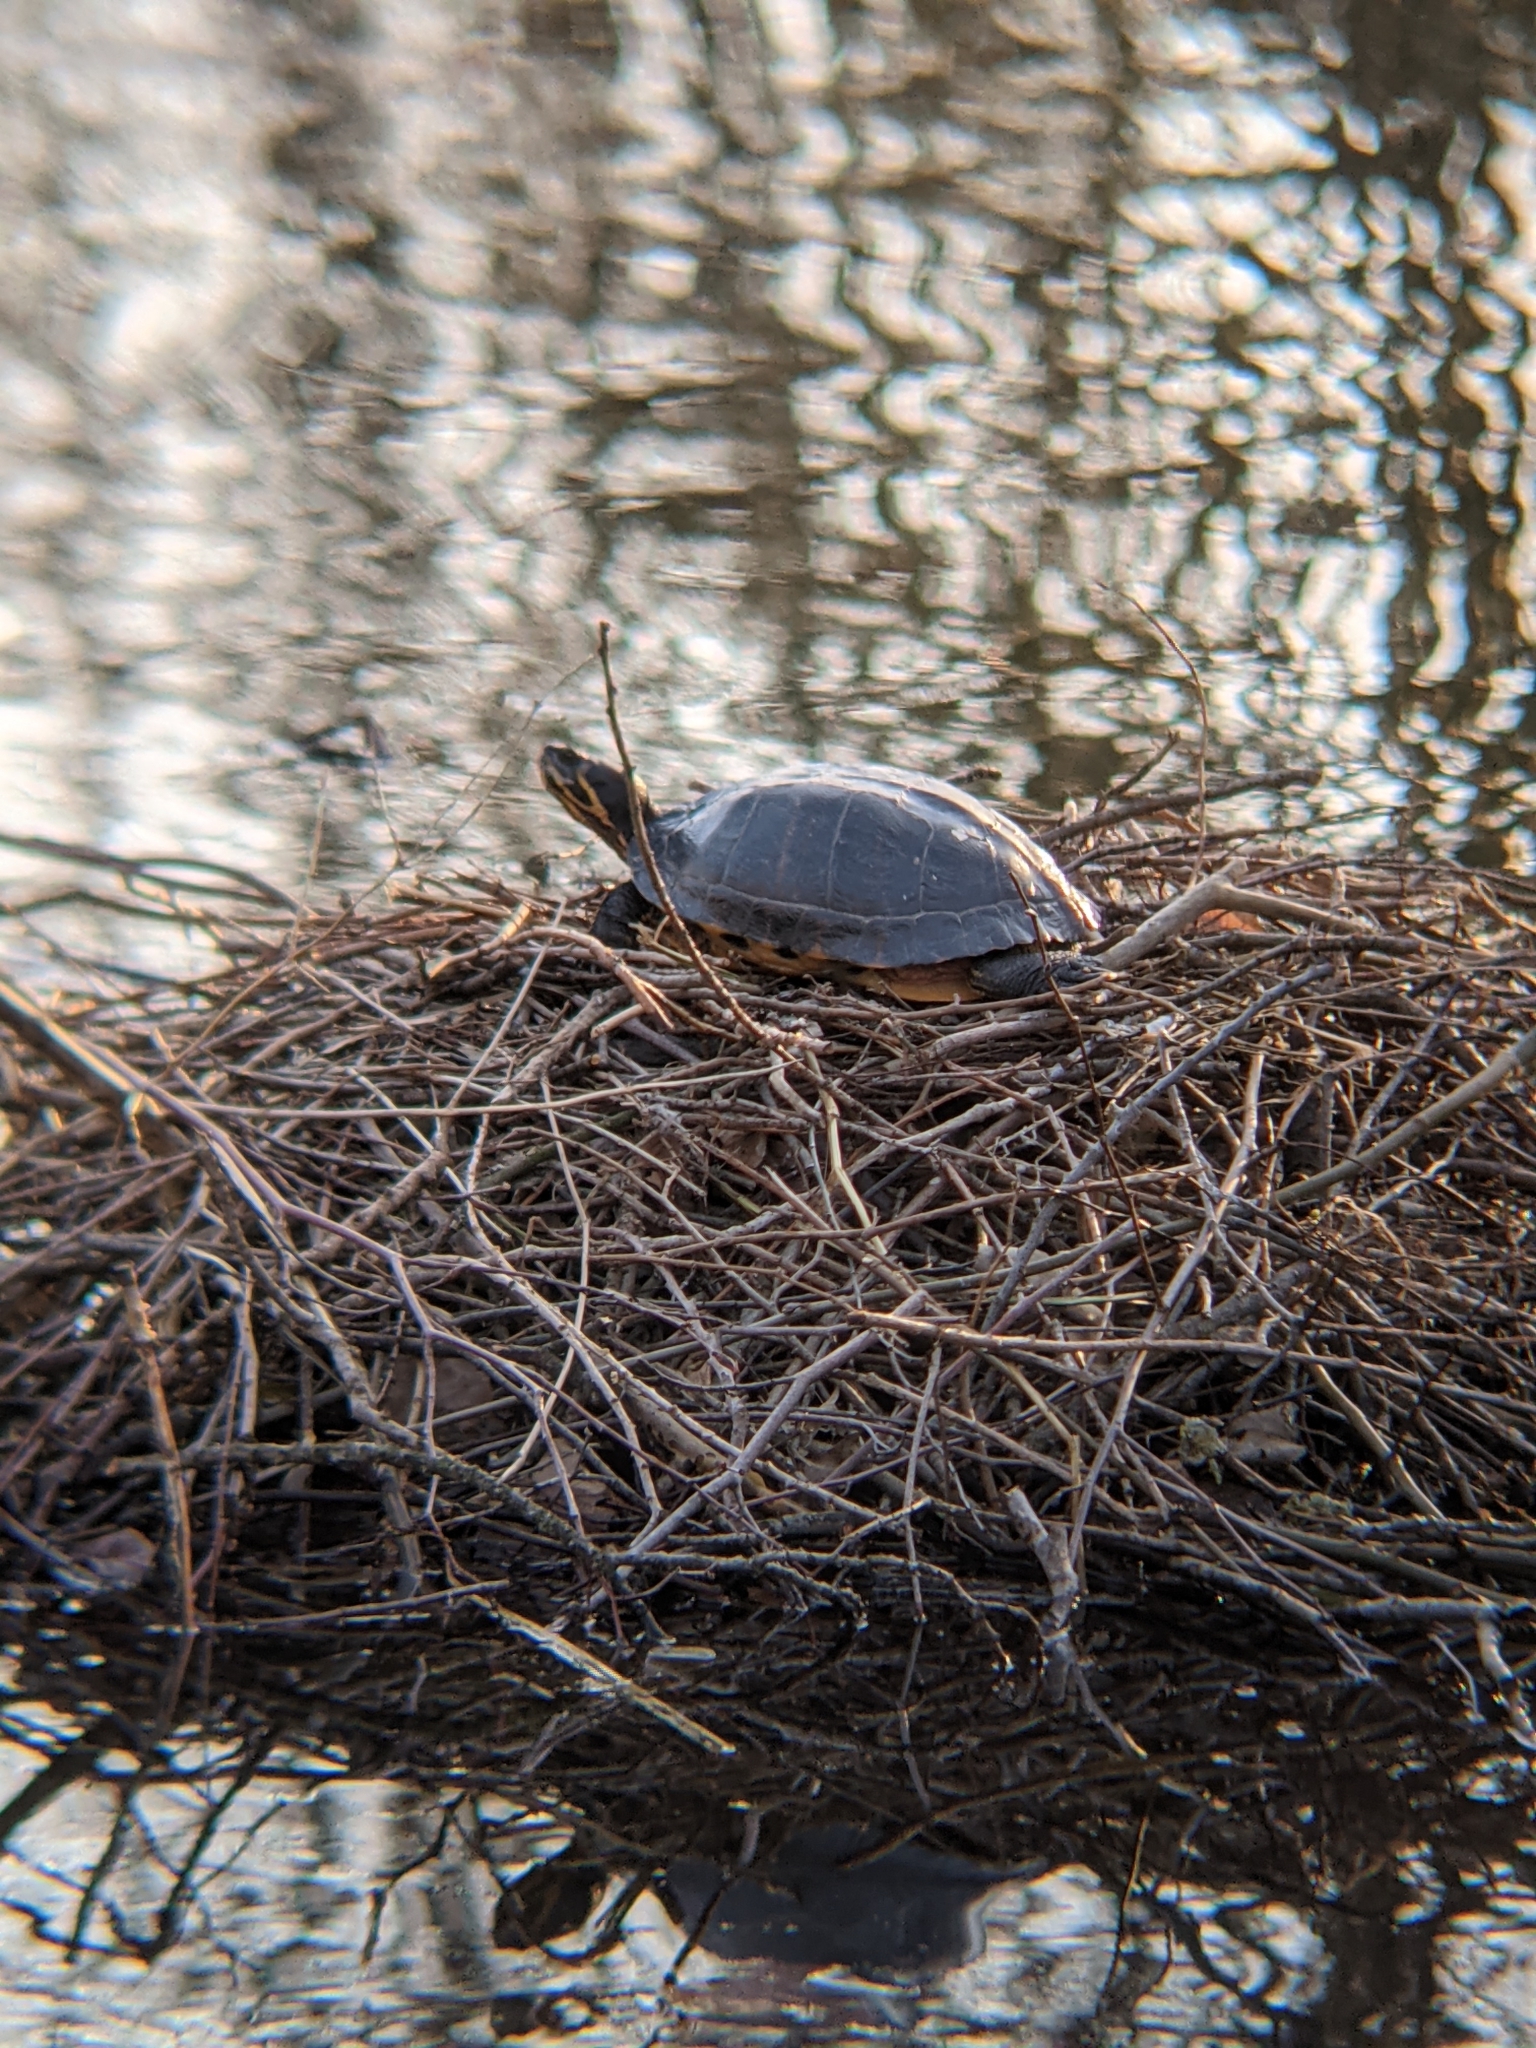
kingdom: Animalia
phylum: Chordata
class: Testudines
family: Emydidae
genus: Trachemys
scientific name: Trachemys scripta
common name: Slider
